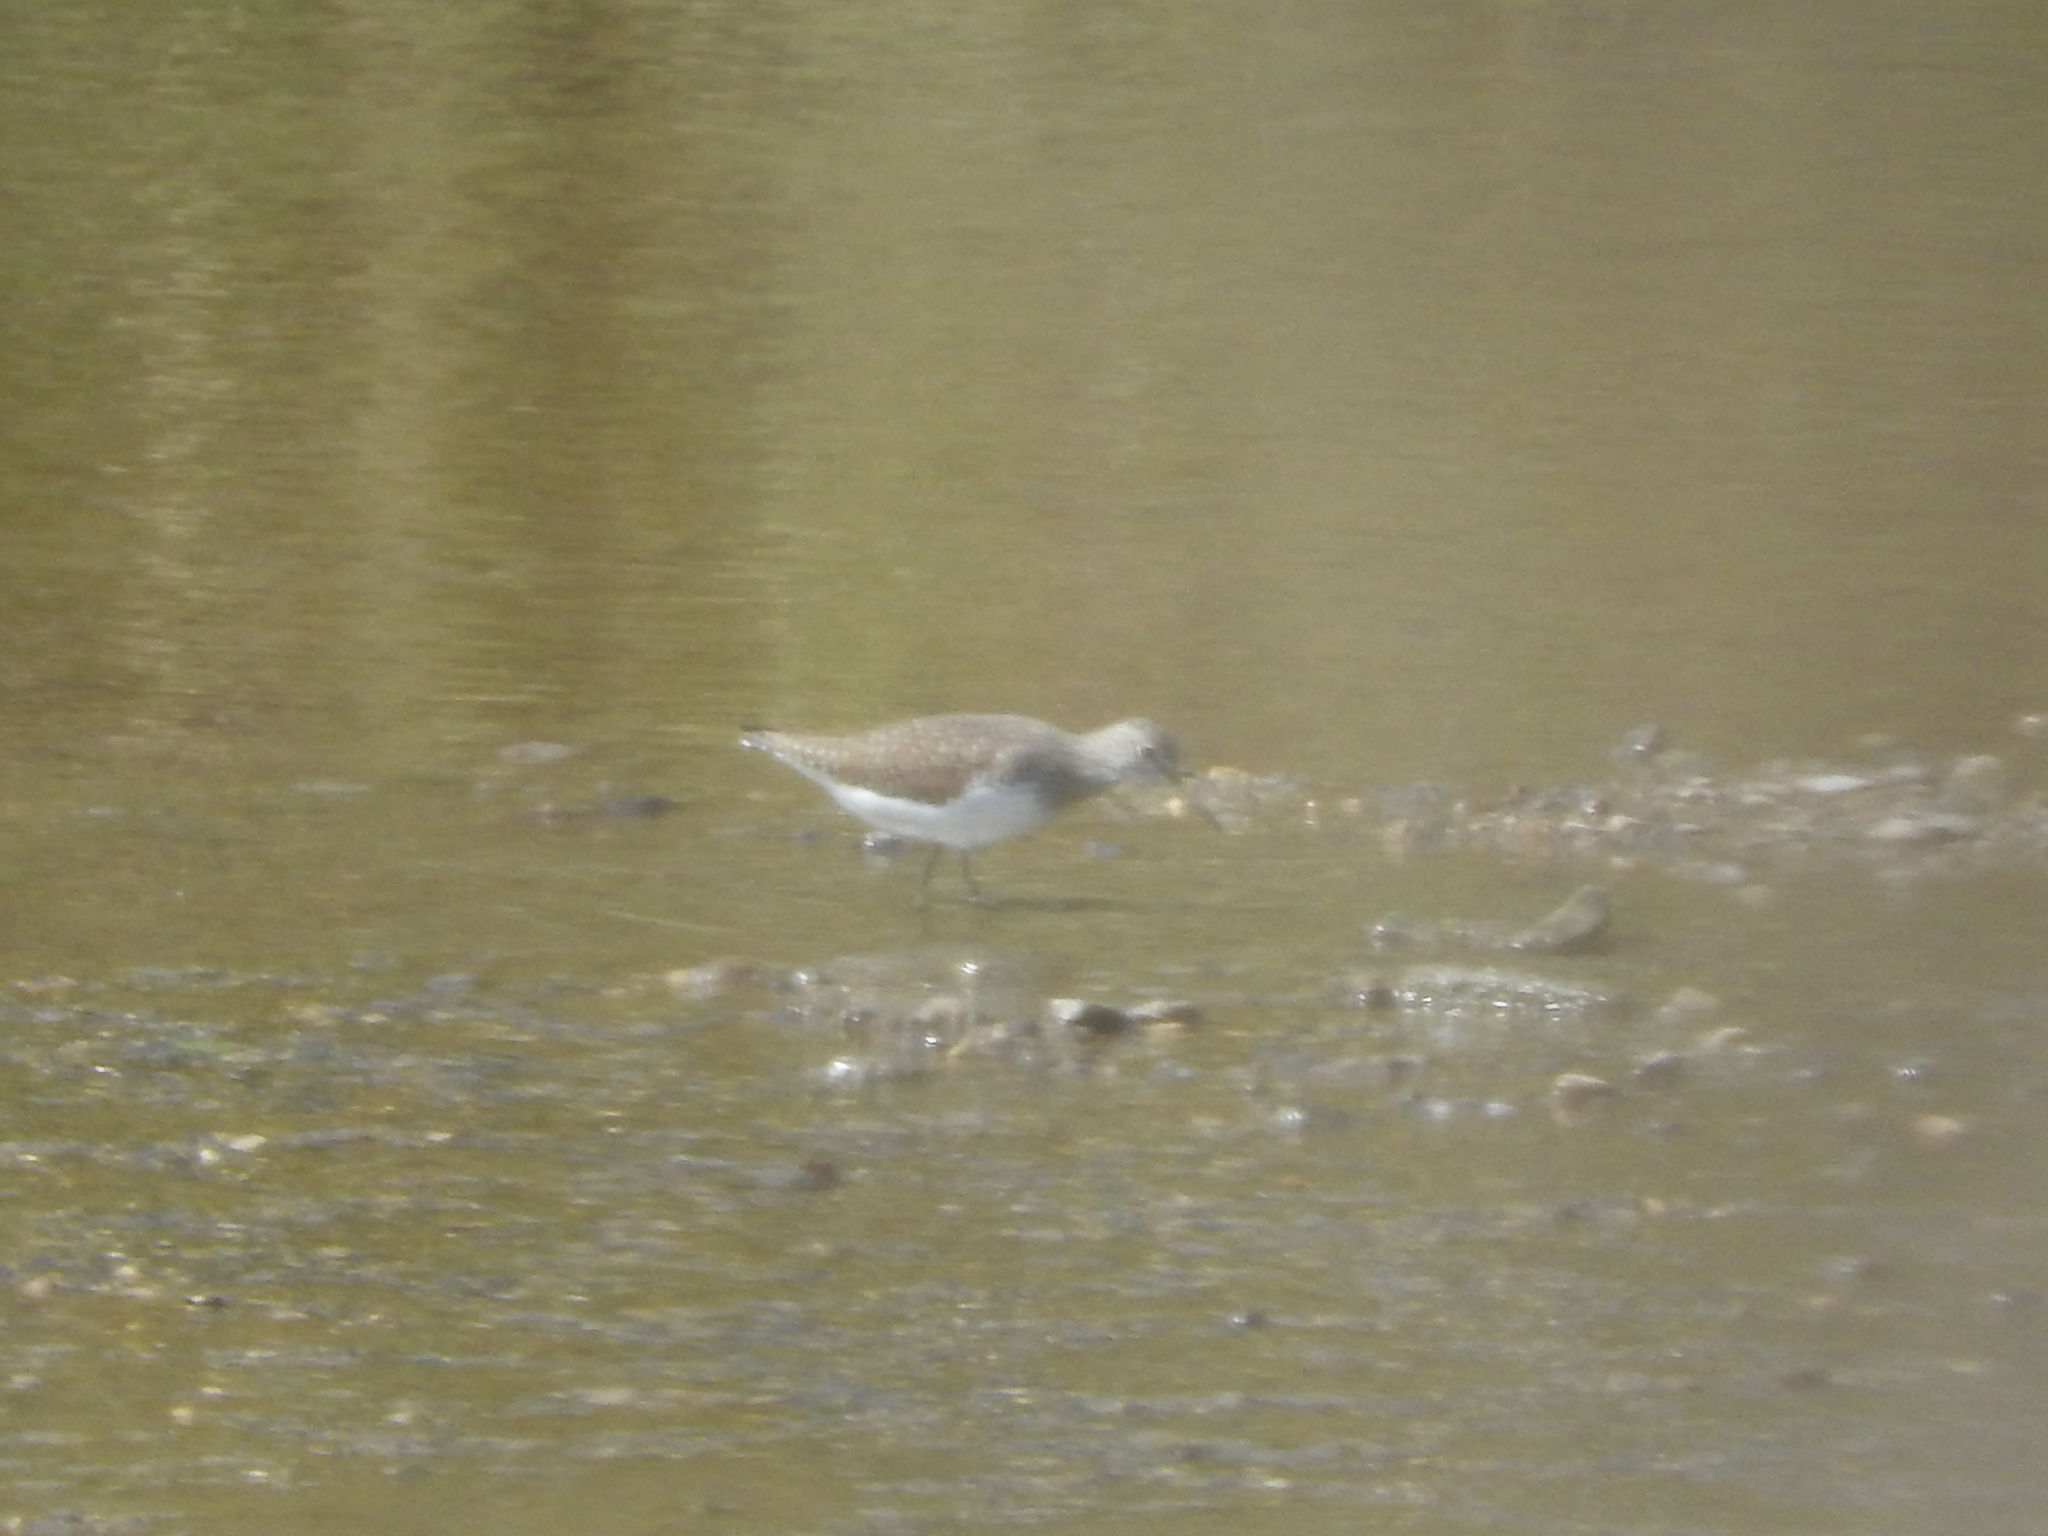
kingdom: Animalia
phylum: Chordata
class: Aves
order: Charadriiformes
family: Scolopacidae
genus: Tringa
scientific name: Tringa ochropus
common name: Green sandpiper
